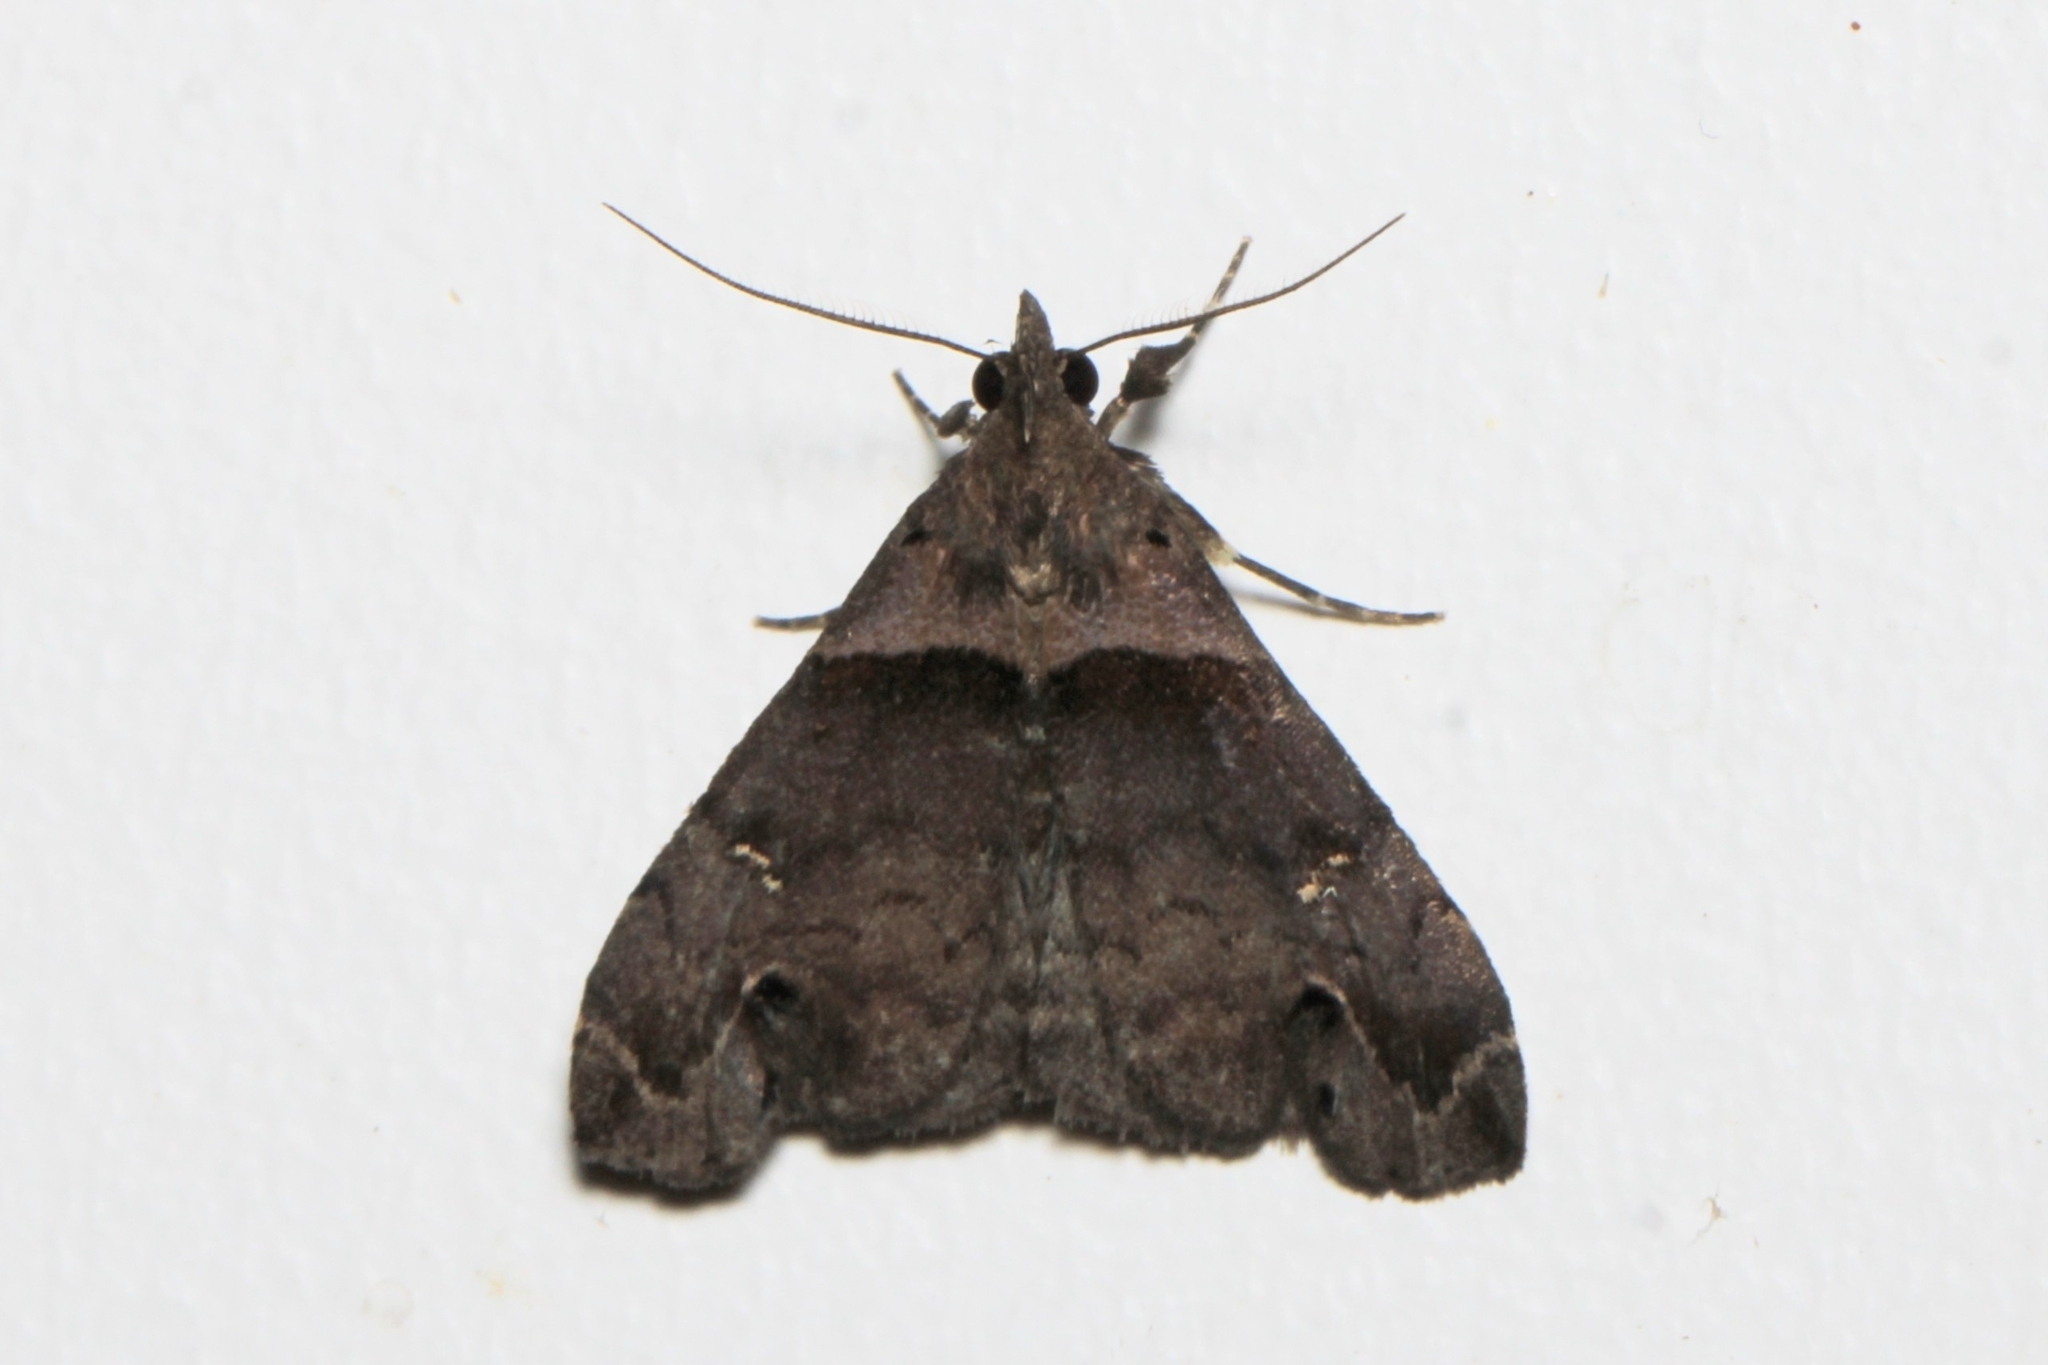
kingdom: Animalia
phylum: Arthropoda
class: Insecta
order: Lepidoptera
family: Erebidae
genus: Lascoria
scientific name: Lascoria ambigualis
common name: Ambiguous moth
